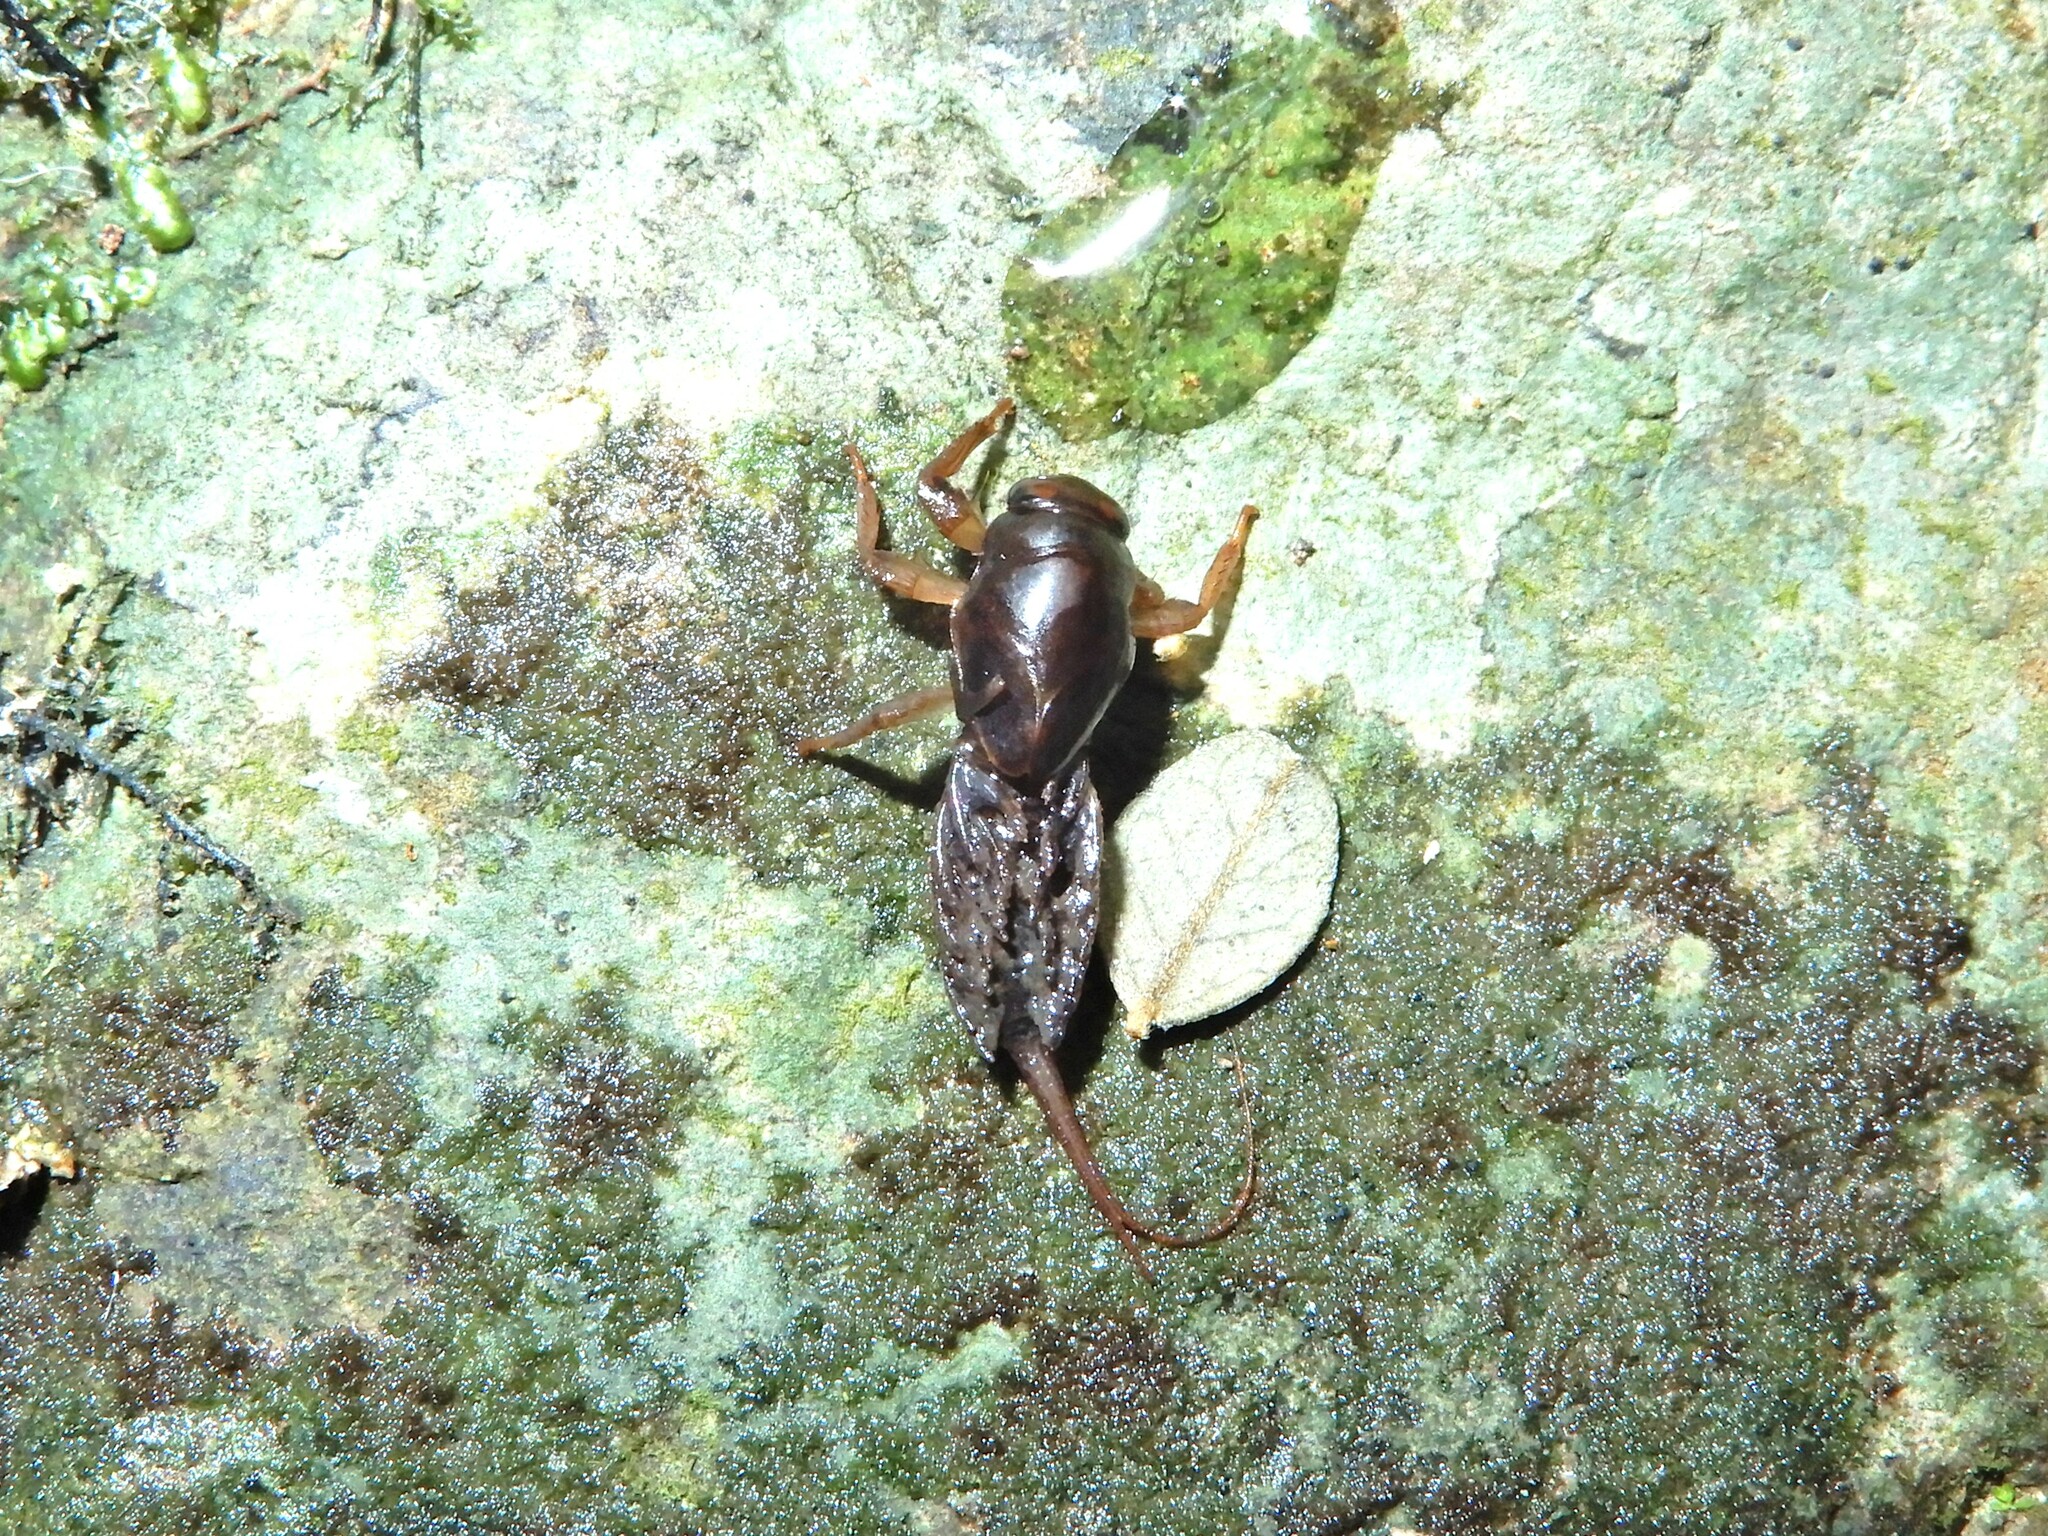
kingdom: Animalia
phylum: Arthropoda
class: Insecta
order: Ephemeroptera
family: Coloburiscidae
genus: Coloburiscus
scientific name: Coloburiscus humeralis
